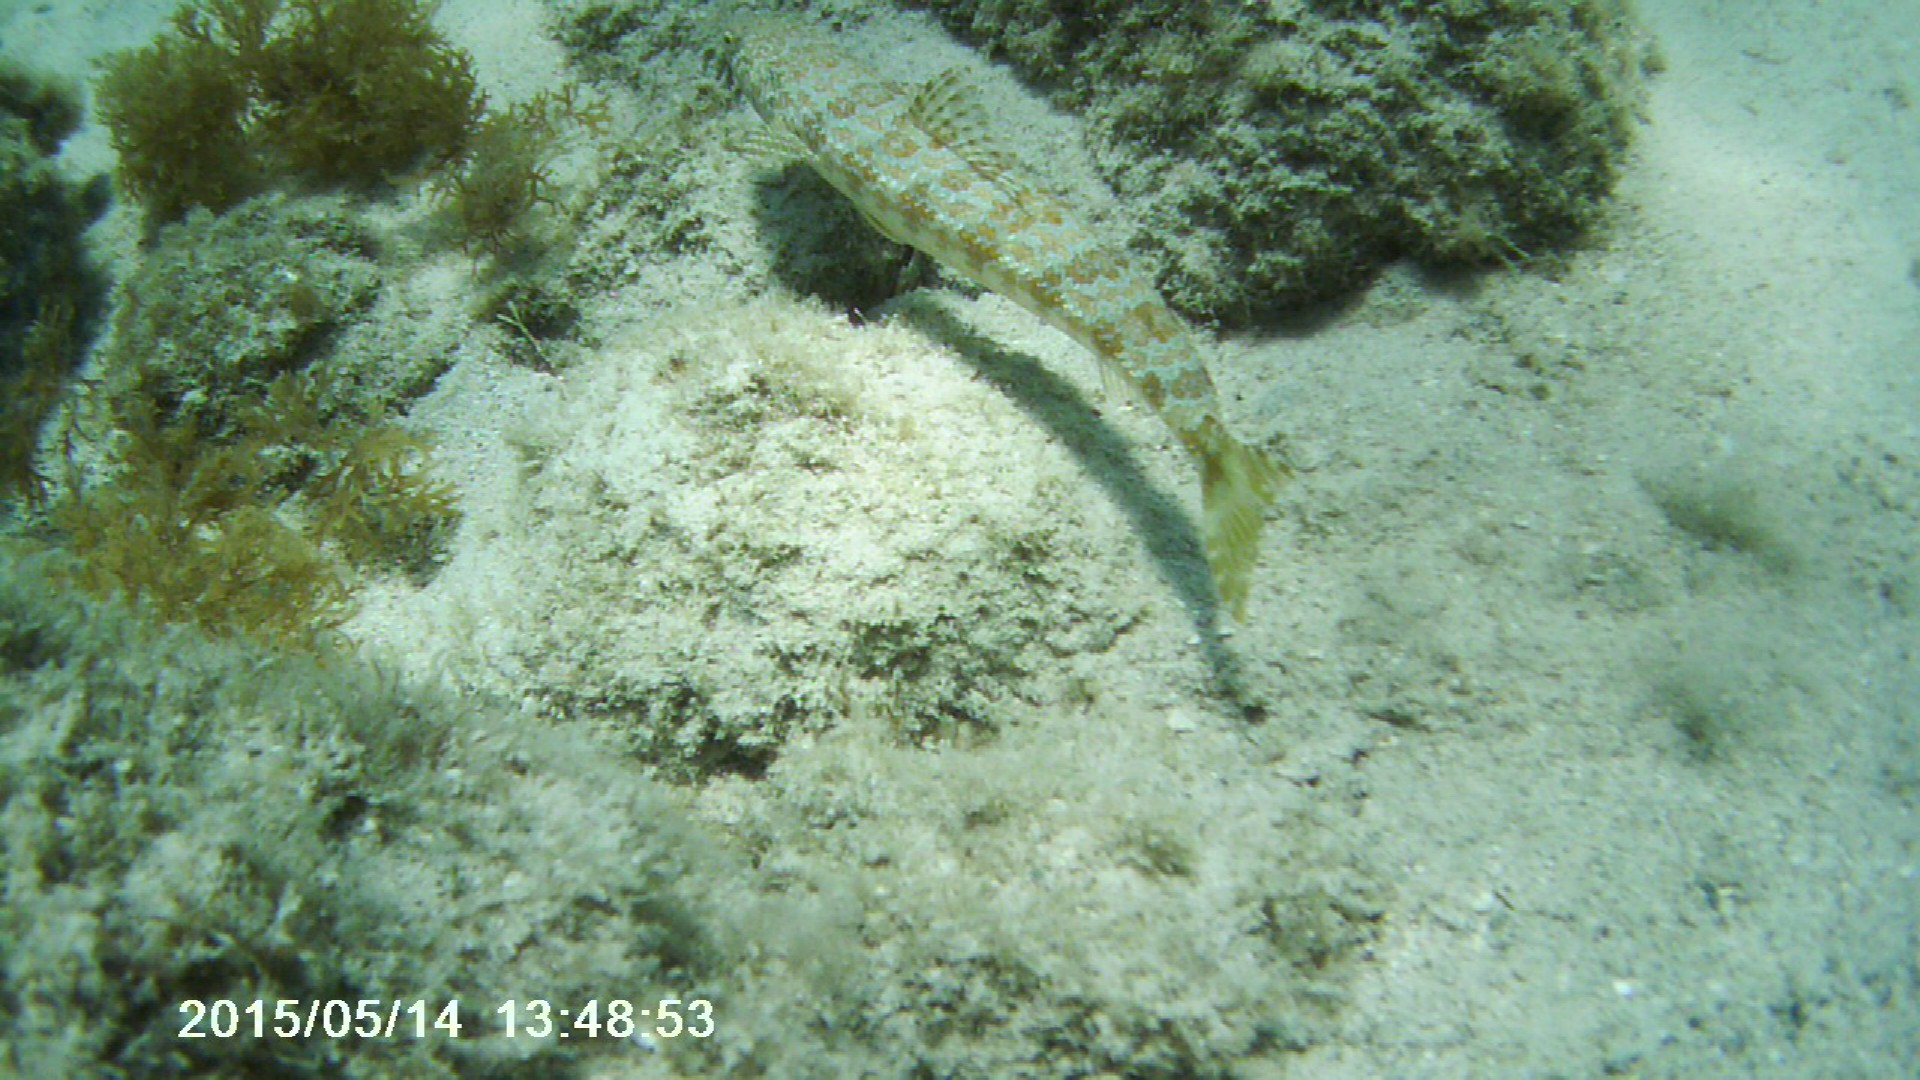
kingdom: Animalia
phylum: Chordata
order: Aulopiformes
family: Synodontidae
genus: Synodus
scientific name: Synodus intermedius
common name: Sand diver
